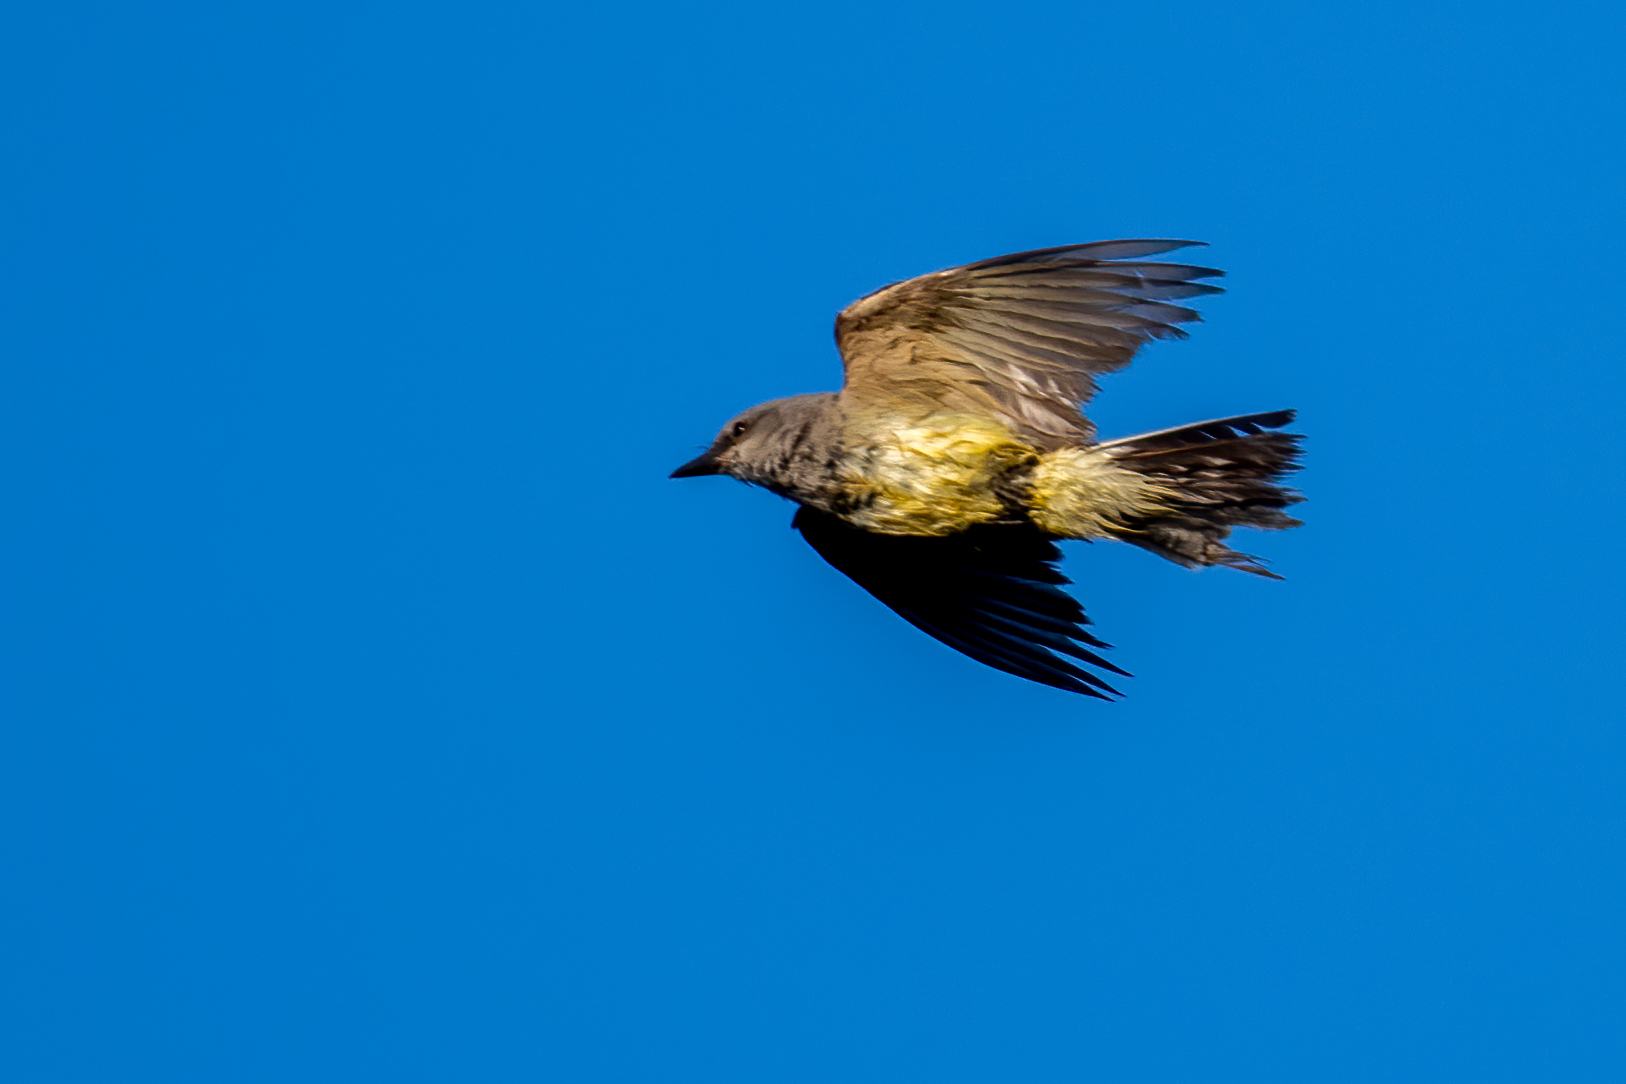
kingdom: Animalia
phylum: Chordata
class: Aves
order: Passeriformes
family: Tyrannidae
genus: Tyrannus
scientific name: Tyrannus verticalis
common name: Western kingbird
